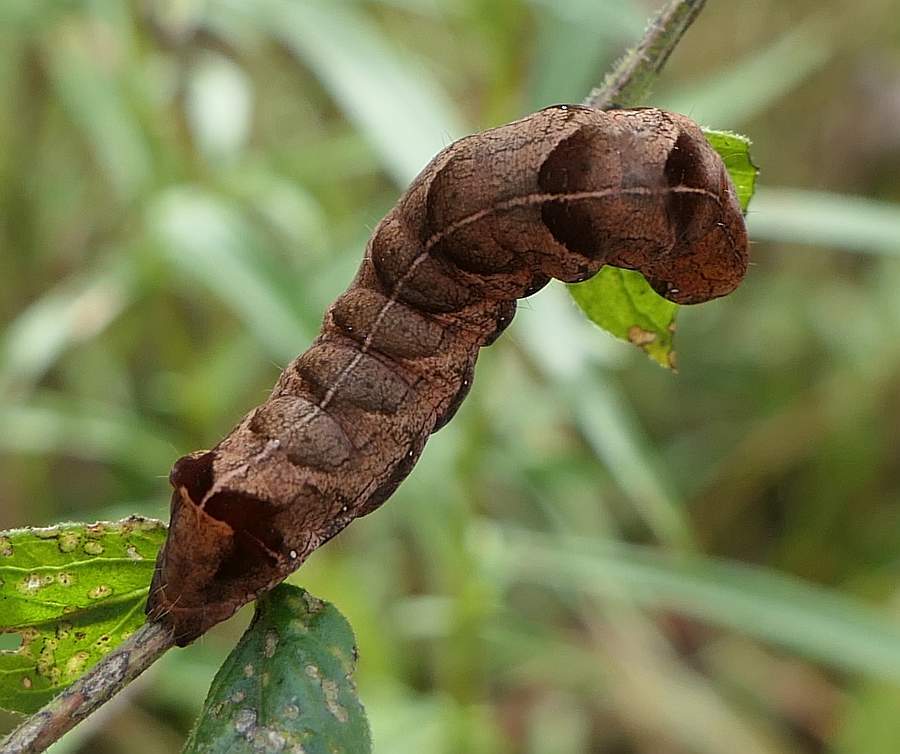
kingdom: Animalia
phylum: Arthropoda
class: Insecta
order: Lepidoptera
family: Noctuidae
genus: Melanchra
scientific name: Melanchra adjuncta
